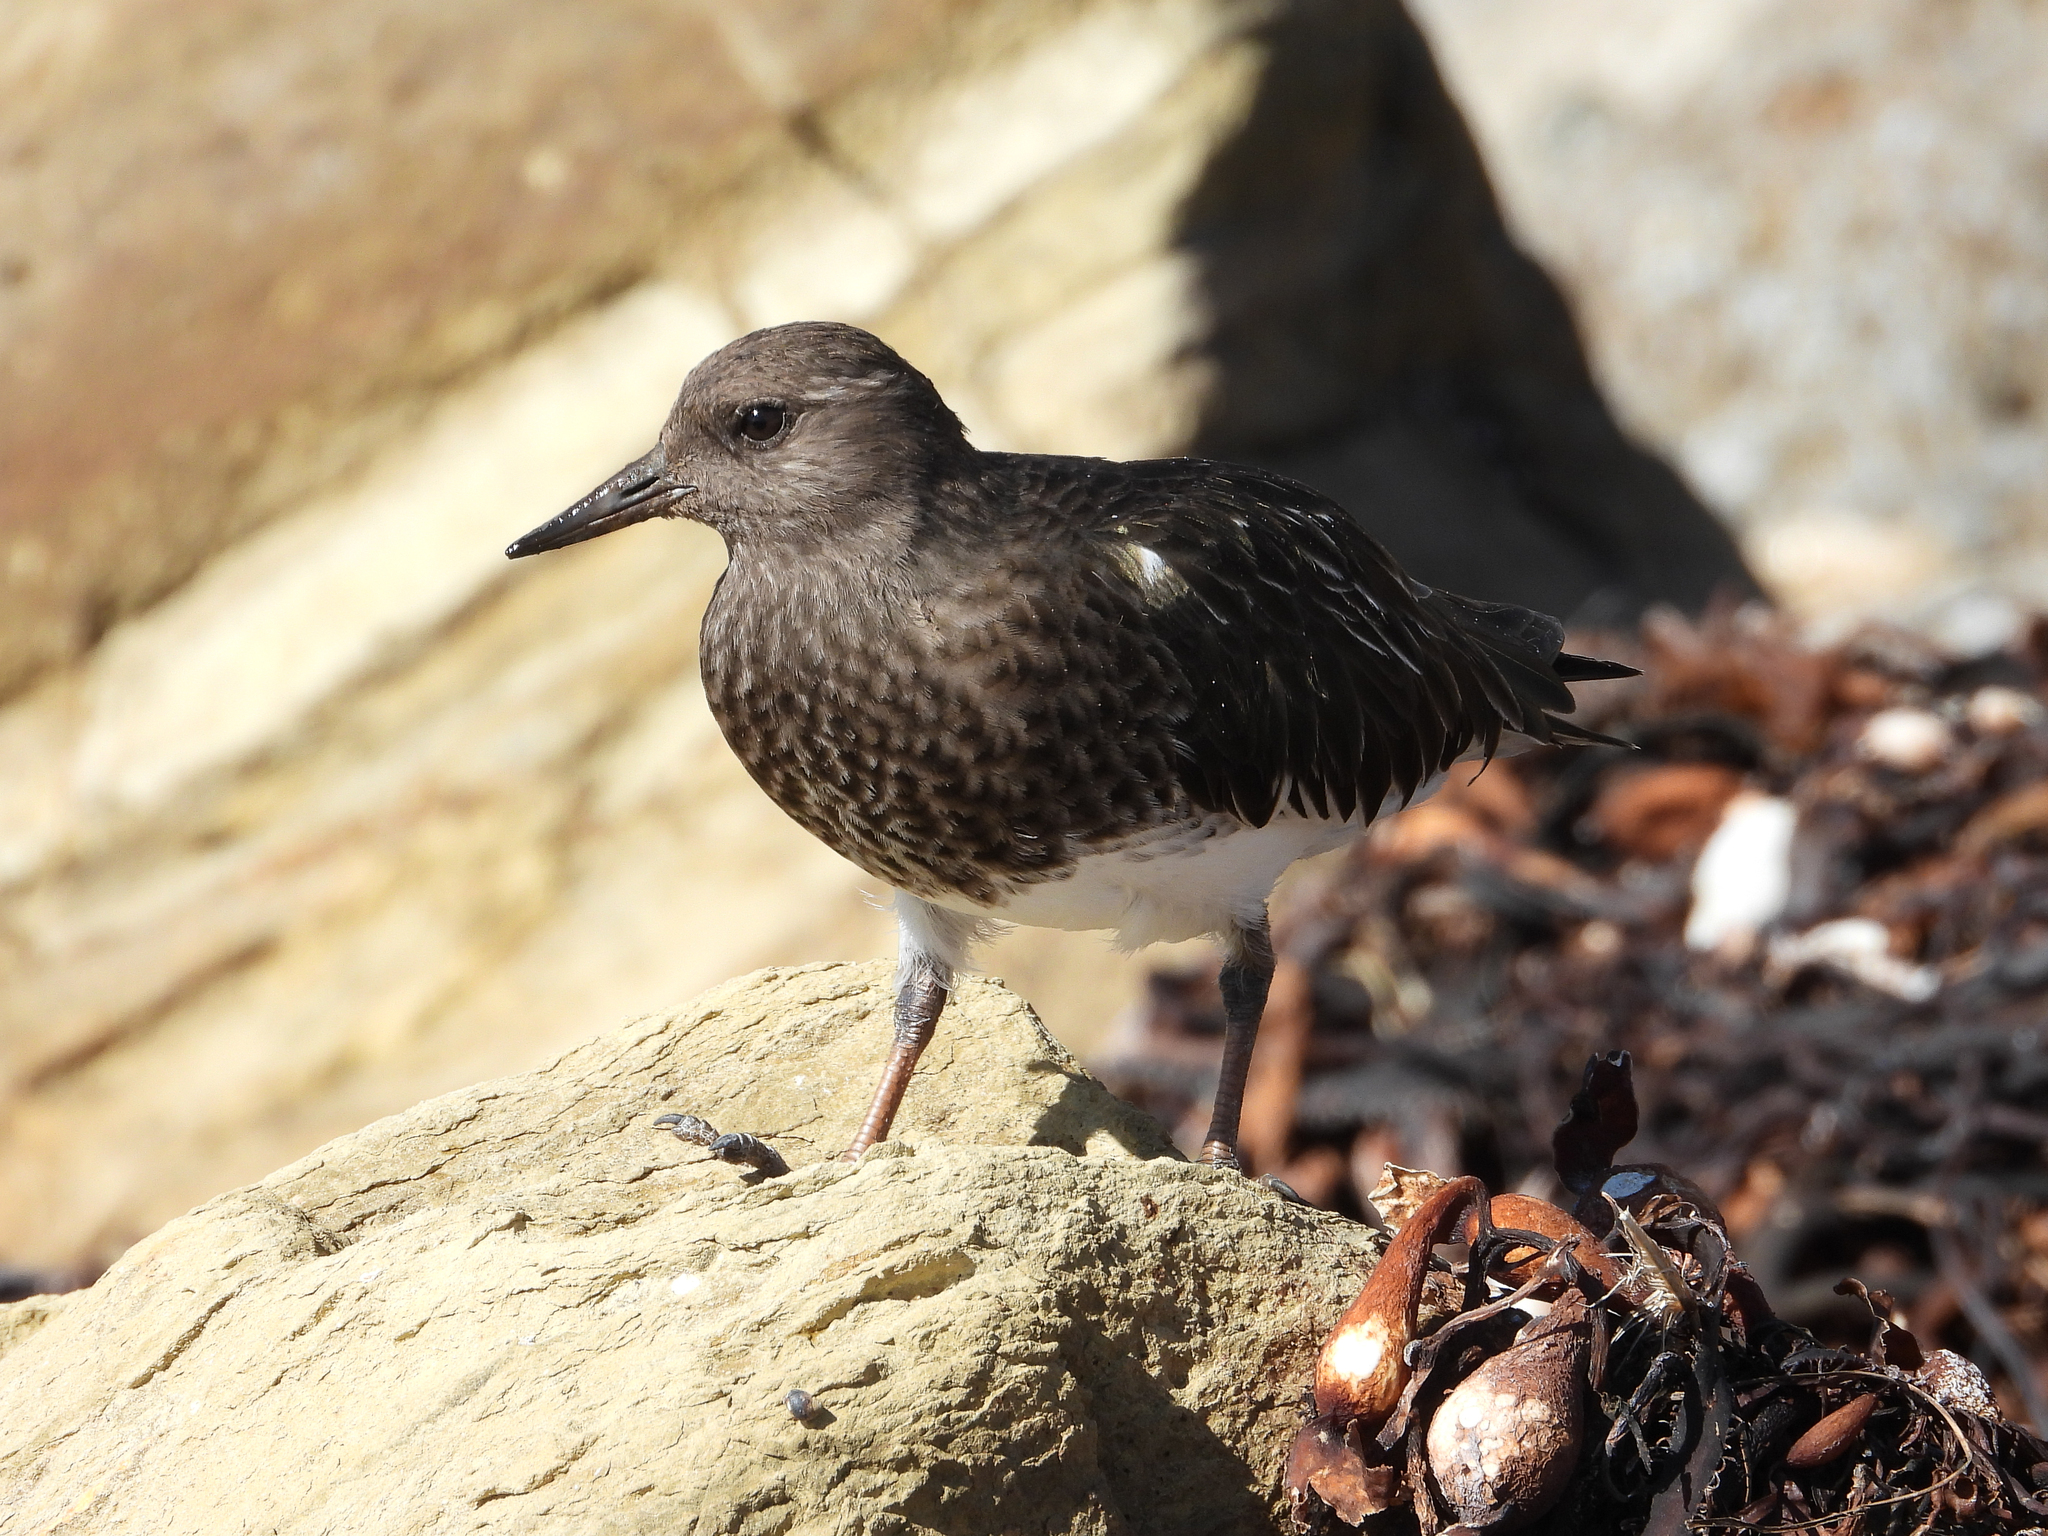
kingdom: Animalia
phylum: Chordata
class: Aves
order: Charadriiformes
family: Scolopacidae
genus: Arenaria
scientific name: Arenaria melanocephala
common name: Black turnstone
